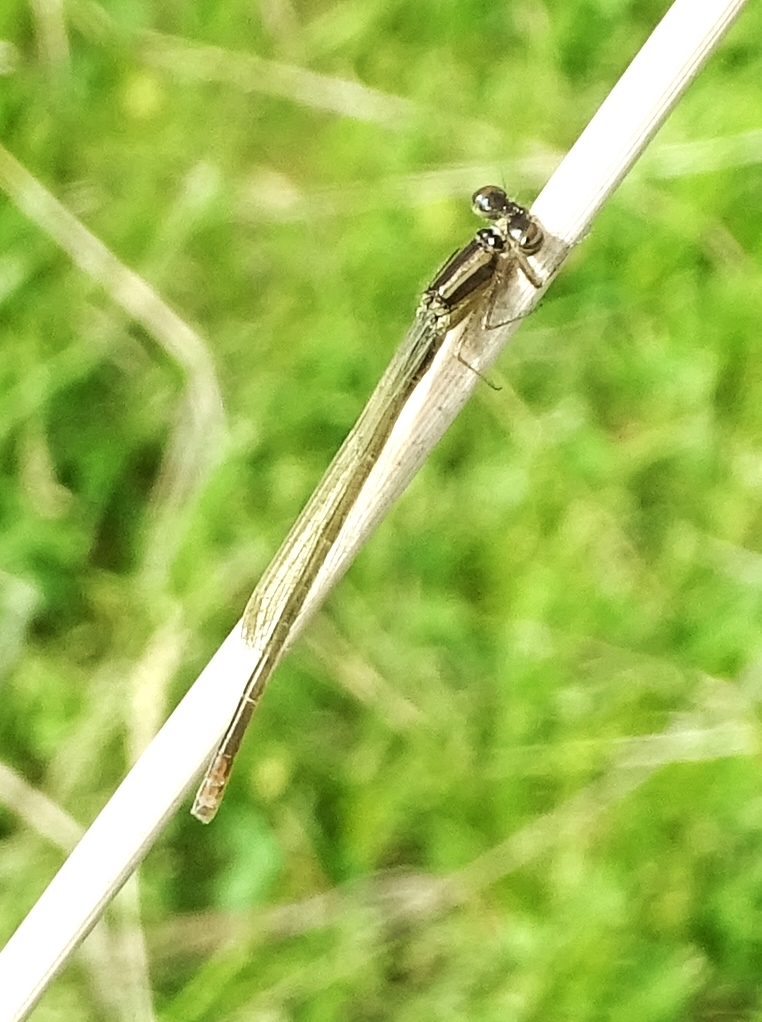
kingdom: Animalia
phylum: Arthropoda
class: Insecta
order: Odonata
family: Coenagrionidae
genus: Ischnura
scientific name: Ischnura verticalis
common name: Eastern forktail
